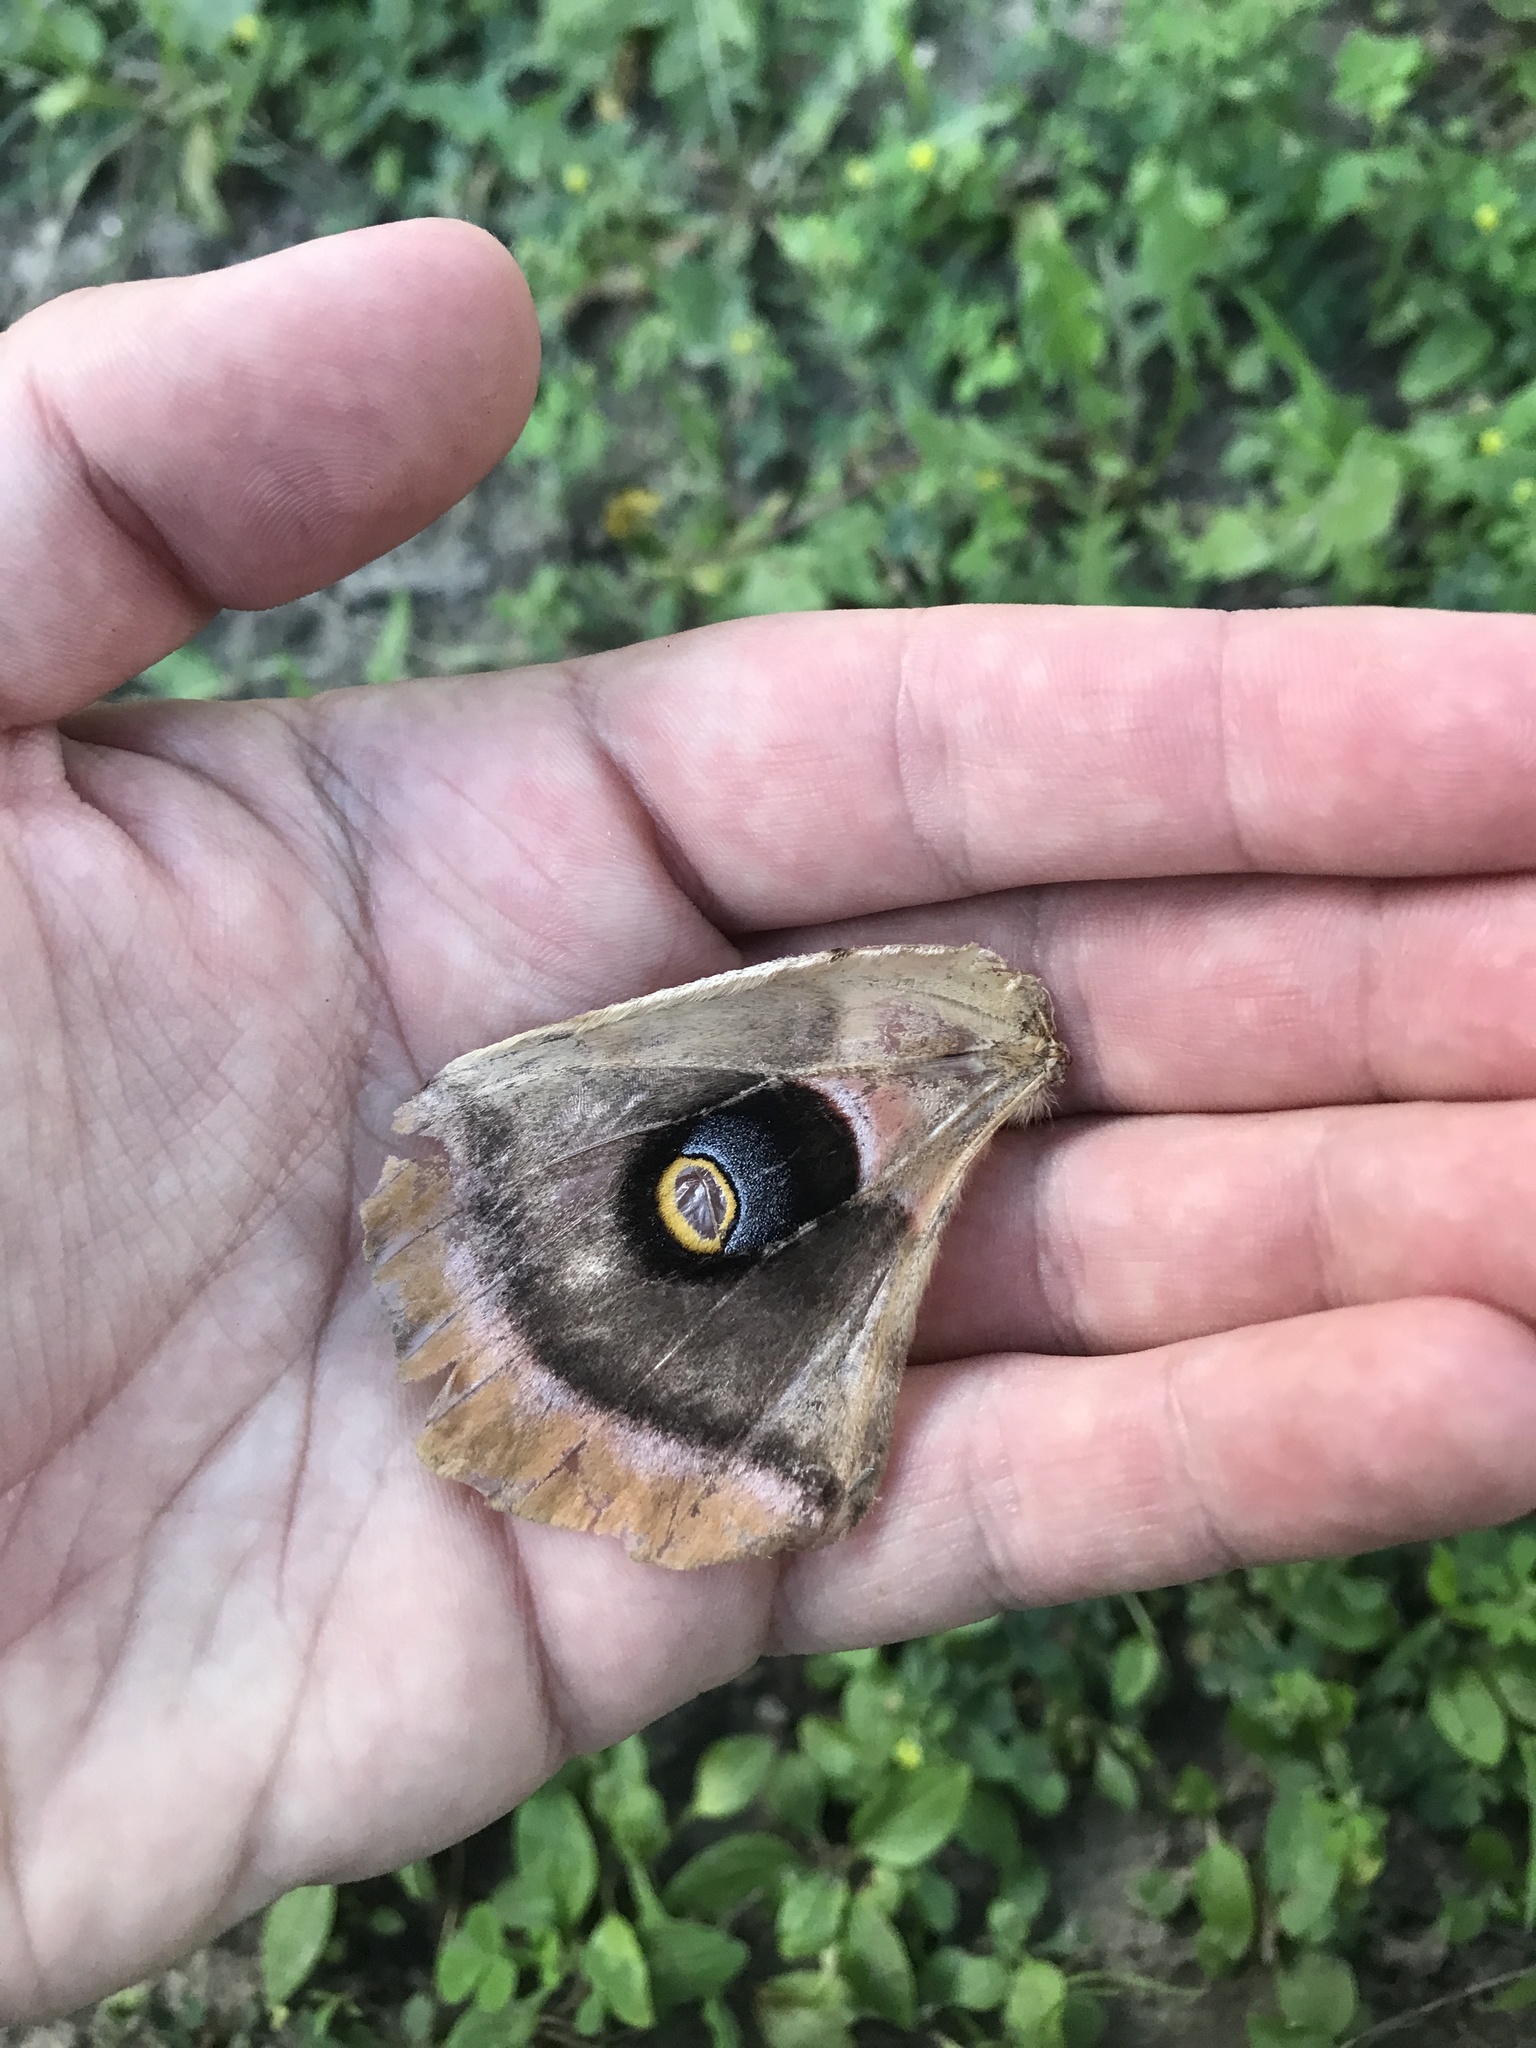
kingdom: Animalia
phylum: Arthropoda
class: Insecta
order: Lepidoptera
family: Saturniidae
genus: Antheraea
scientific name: Antheraea polyphemus
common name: Polyphemus moth
